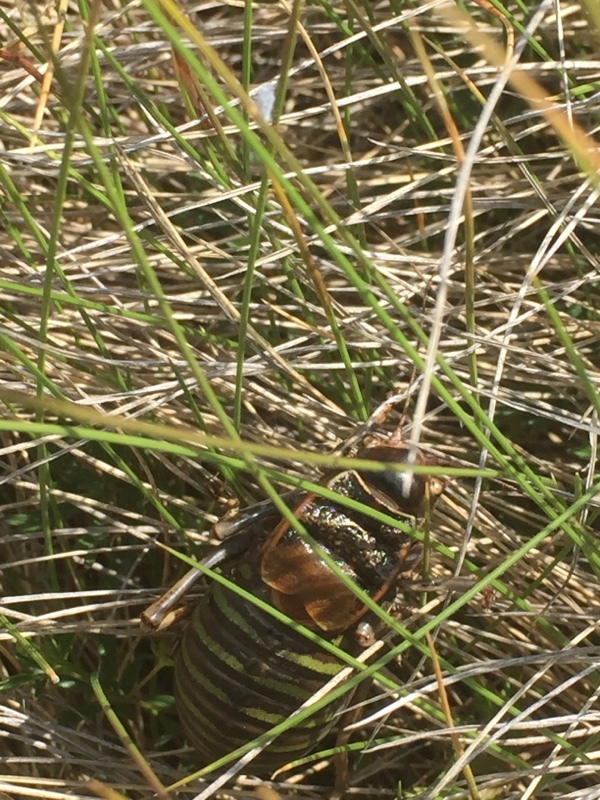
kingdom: Animalia
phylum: Arthropoda
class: Insecta
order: Orthoptera
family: Tettigoniidae
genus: Pycnogaster
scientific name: Pycnogaster jugicola
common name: Fat-bellied saddle bush-cricket
